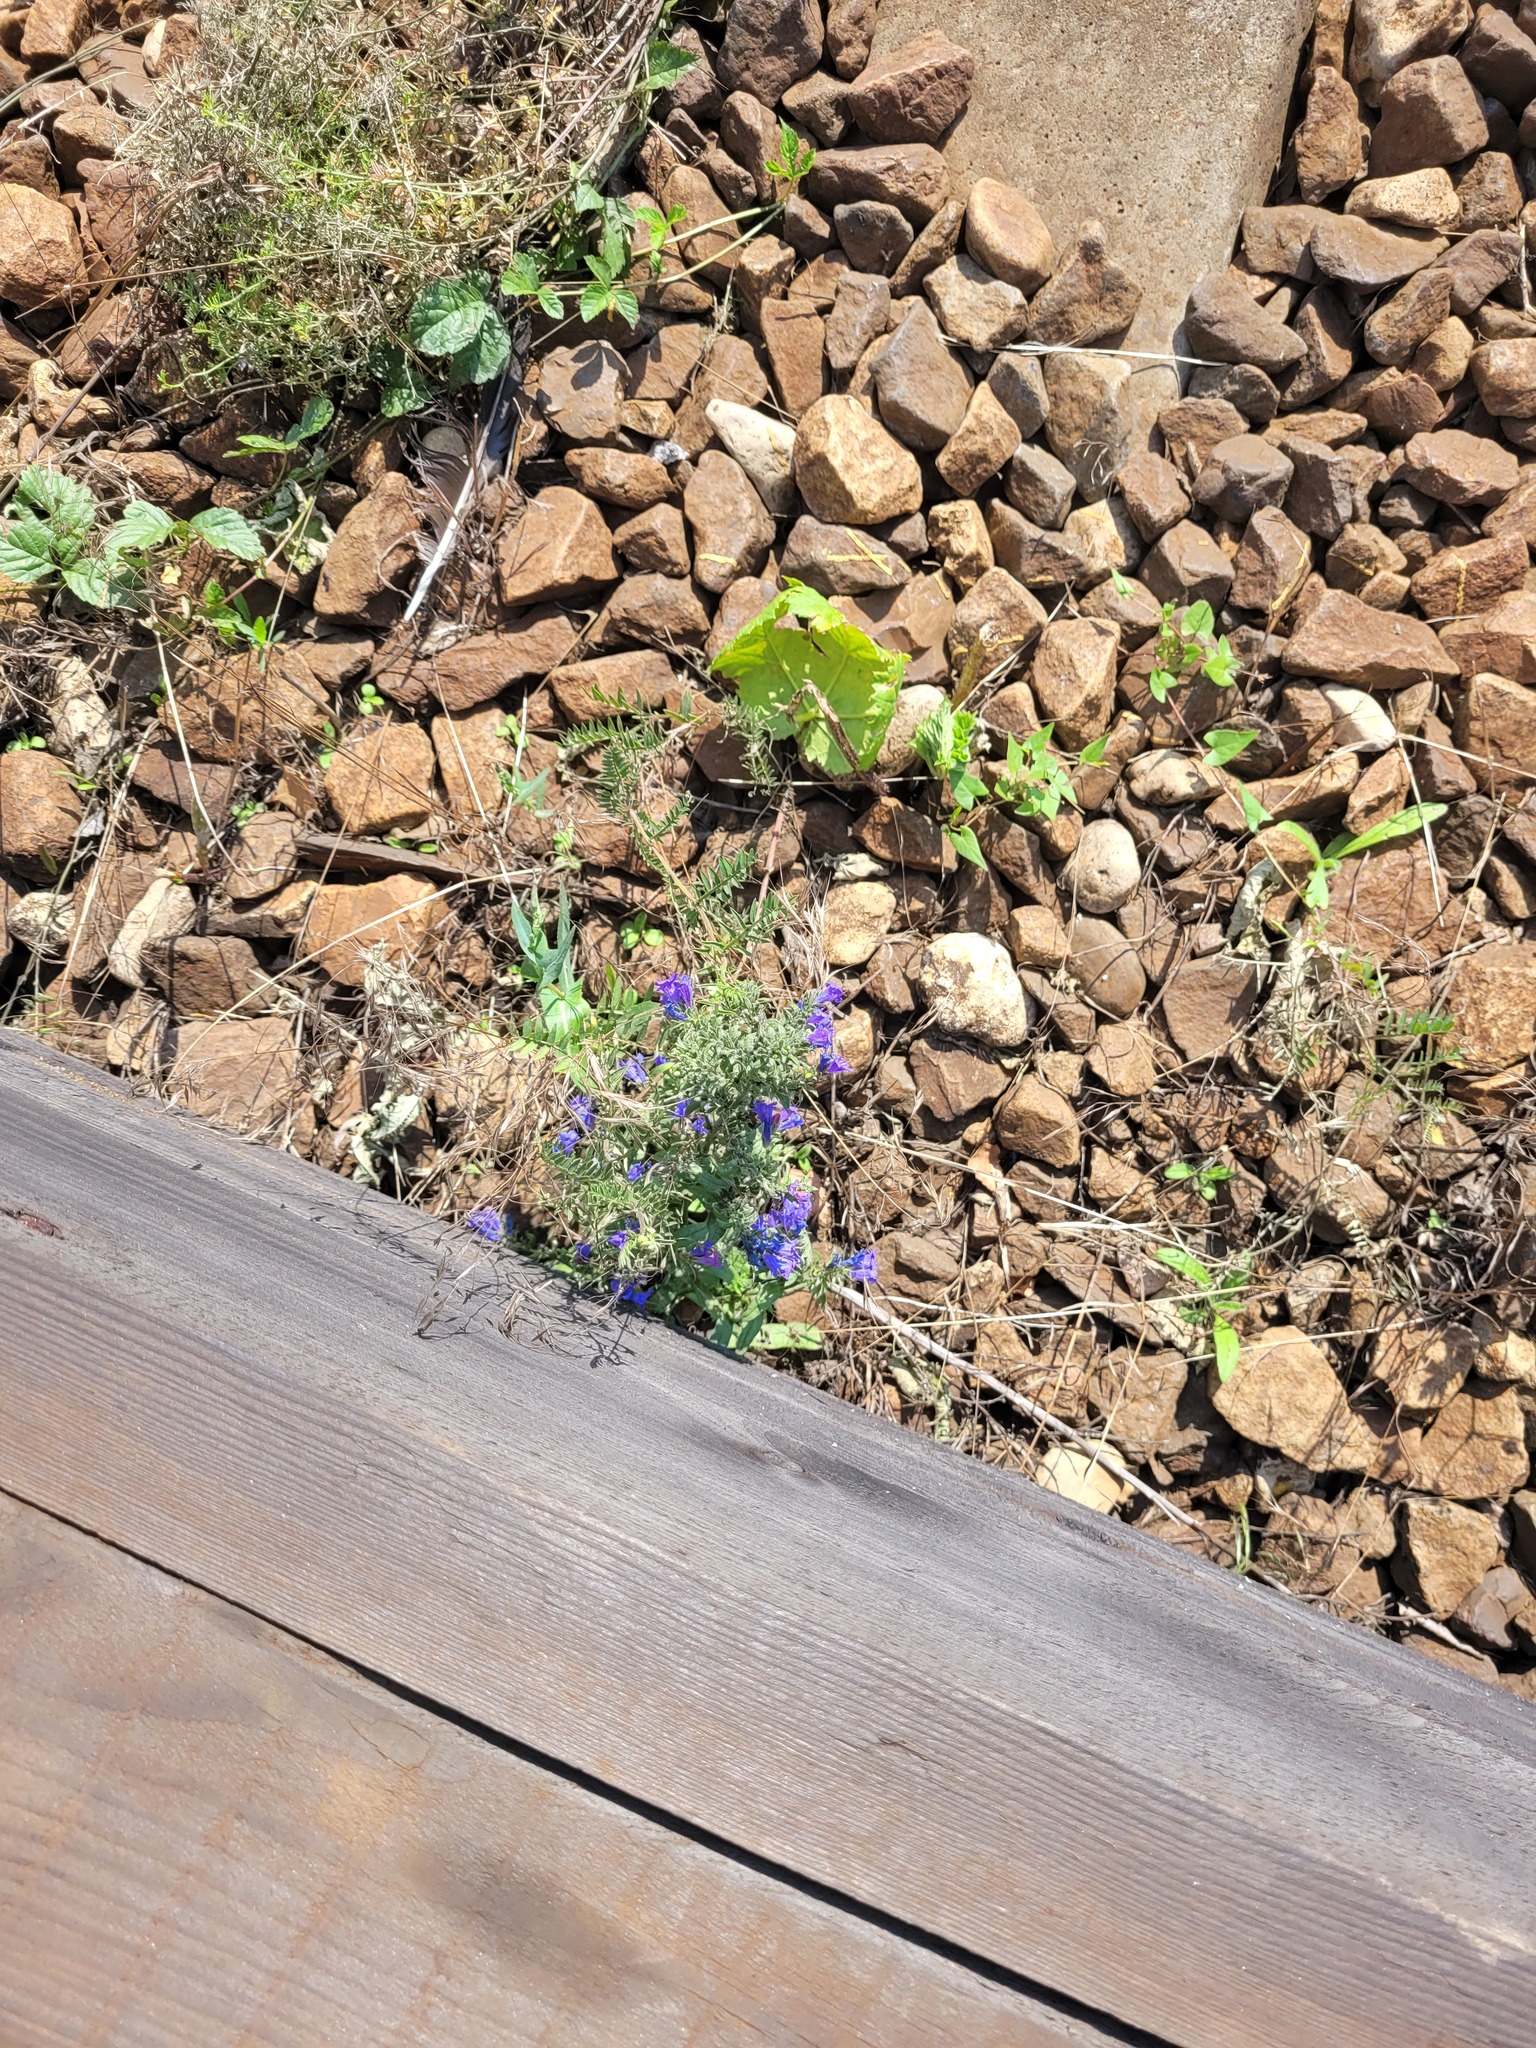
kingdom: Plantae
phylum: Tracheophyta
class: Magnoliopsida
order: Boraginales
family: Boraginaceae
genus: Echium
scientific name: Echium vulgare
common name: Common viper's bugloss
